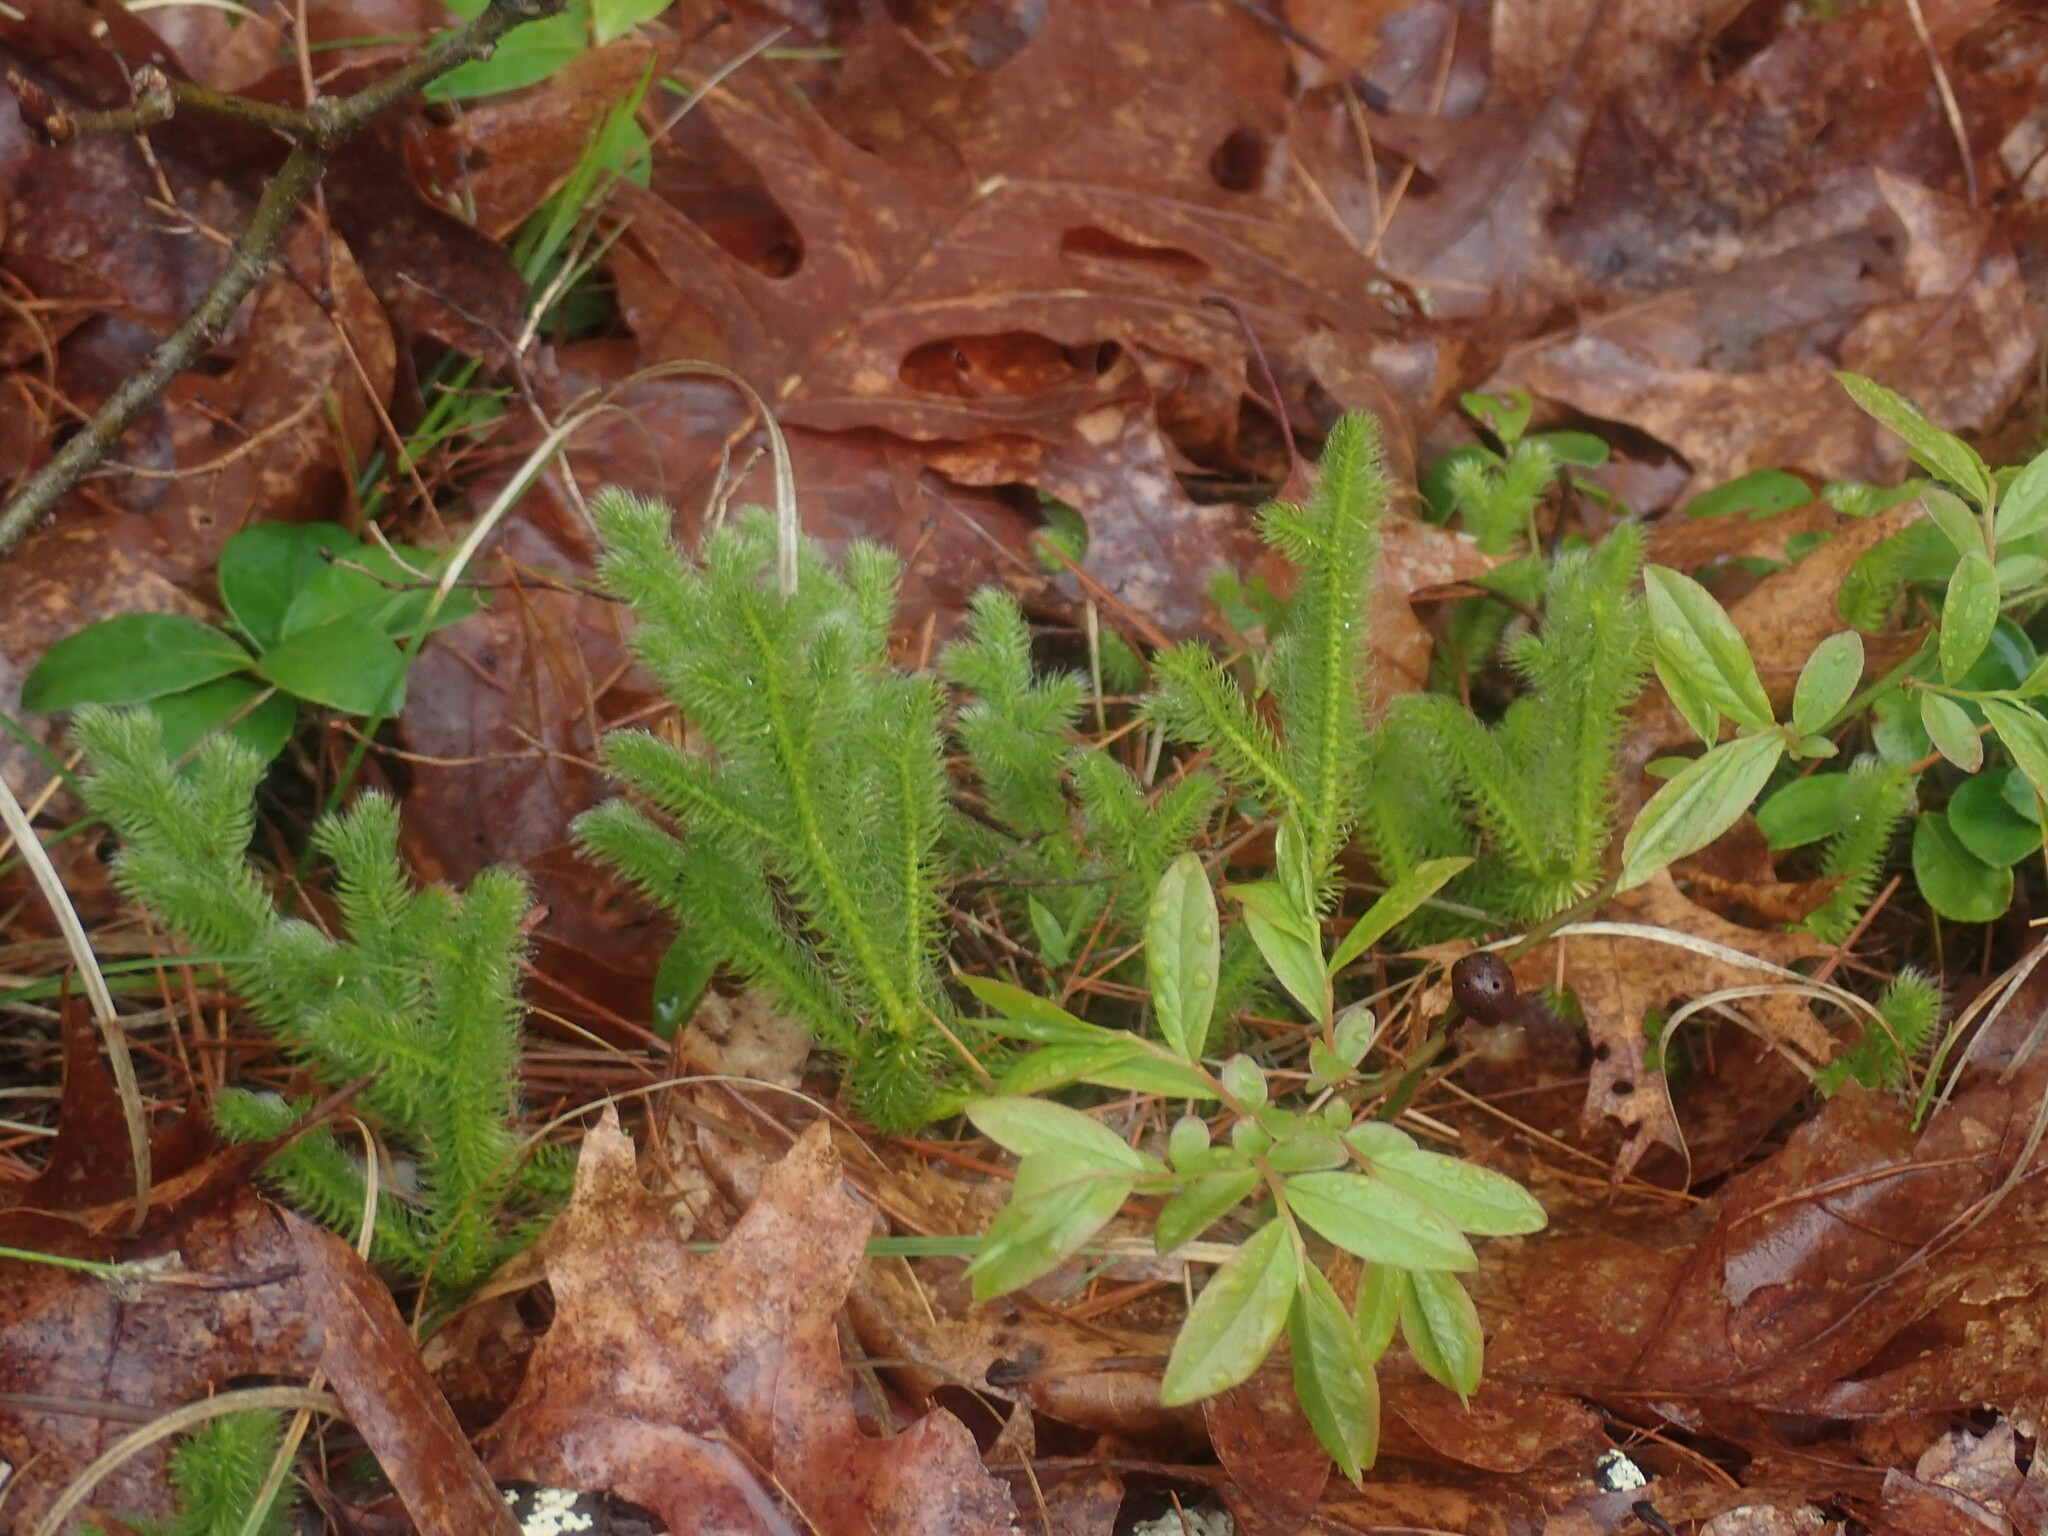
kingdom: Plantae
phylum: Tracheophyta
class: Lycopodiopsida
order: Lycopodiales
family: Lycopodiaceae
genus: Lycopodium
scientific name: Lycopodium clavatum
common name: Stag's-horn clubmoss
